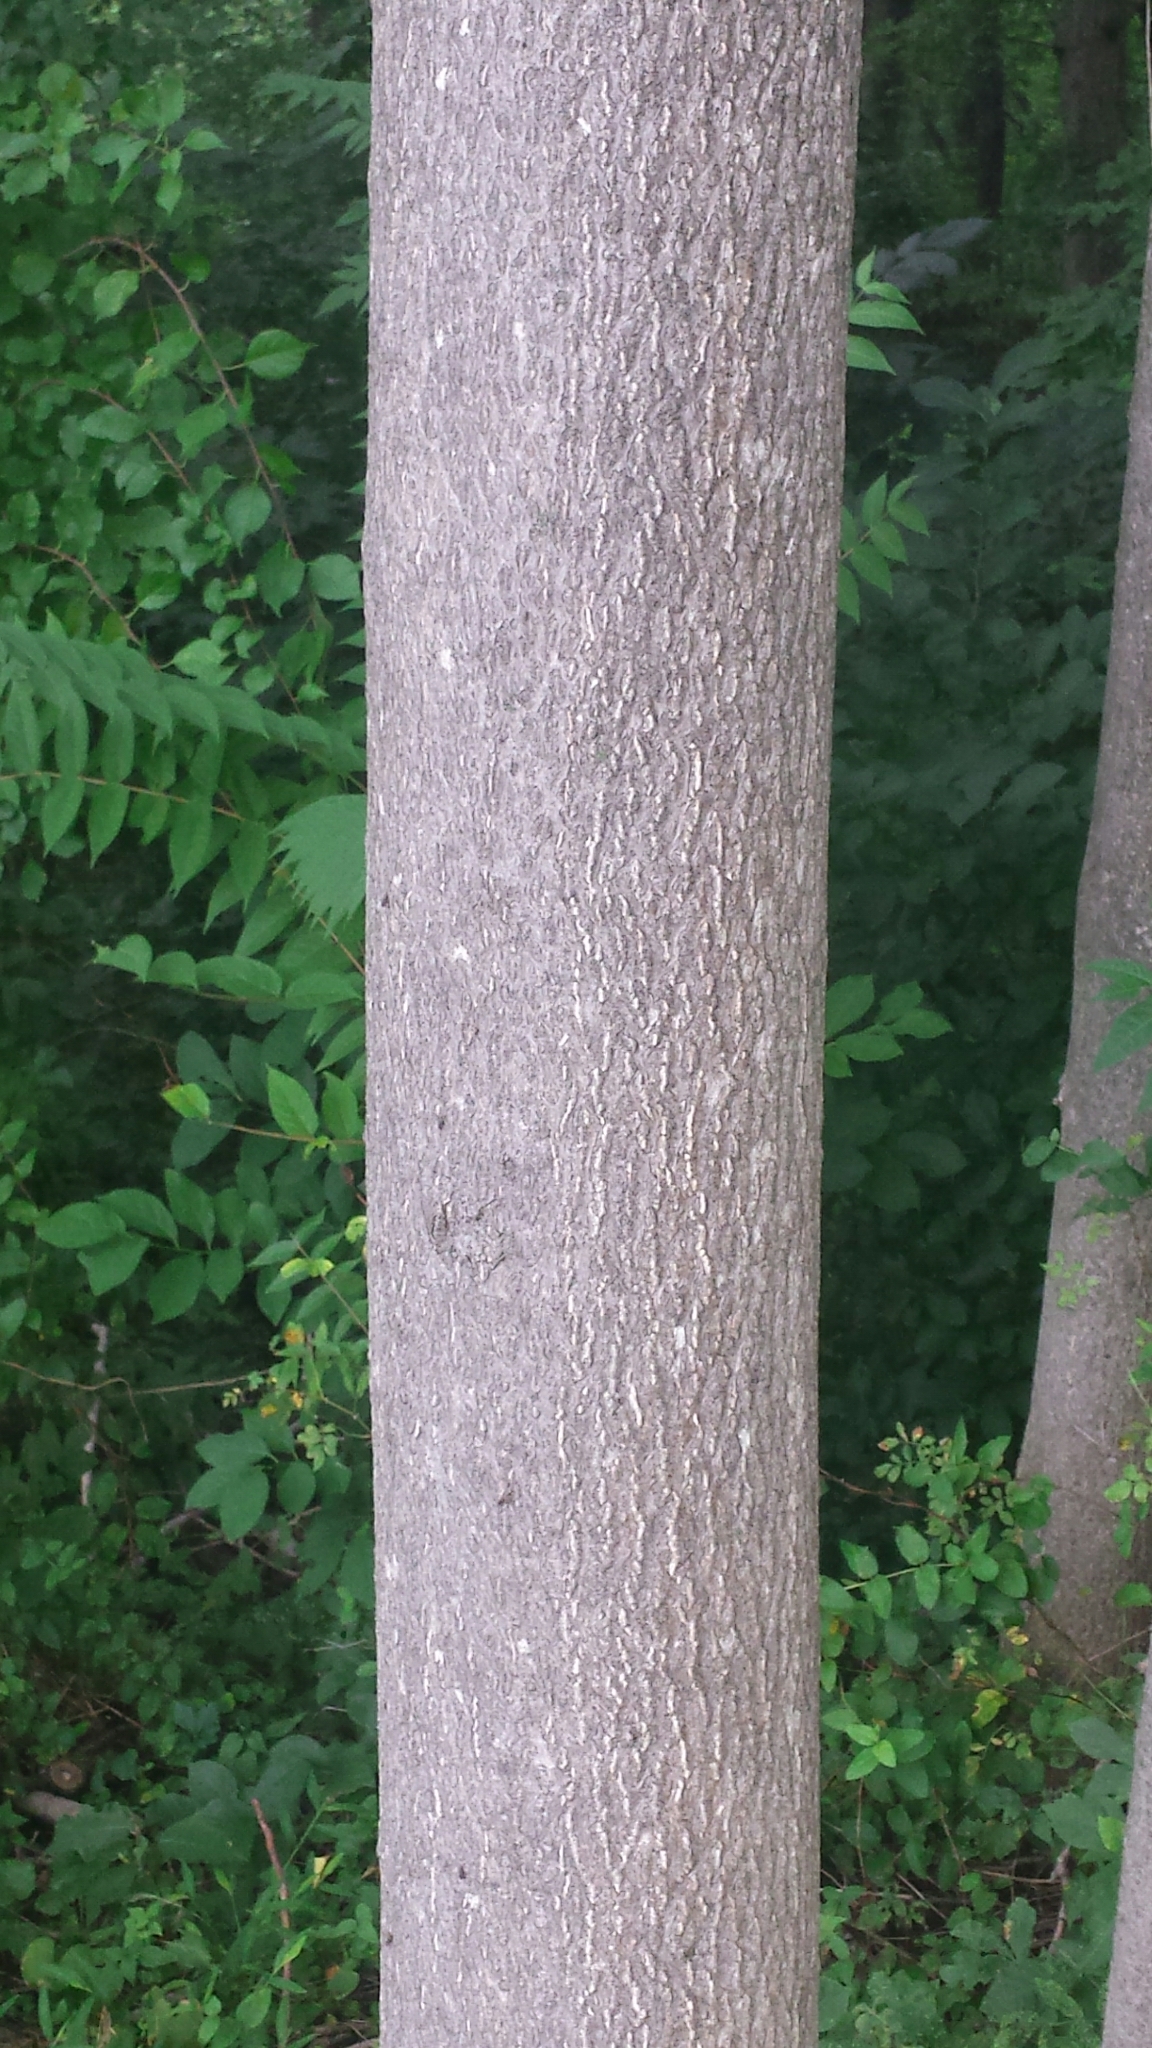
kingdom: Plantae
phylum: Tracheophyta
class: Magnoliopsida
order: Sapindales
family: Simaroubaceae
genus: Ailanthus
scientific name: Ailanthus altissima
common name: Tree-of-heaven
